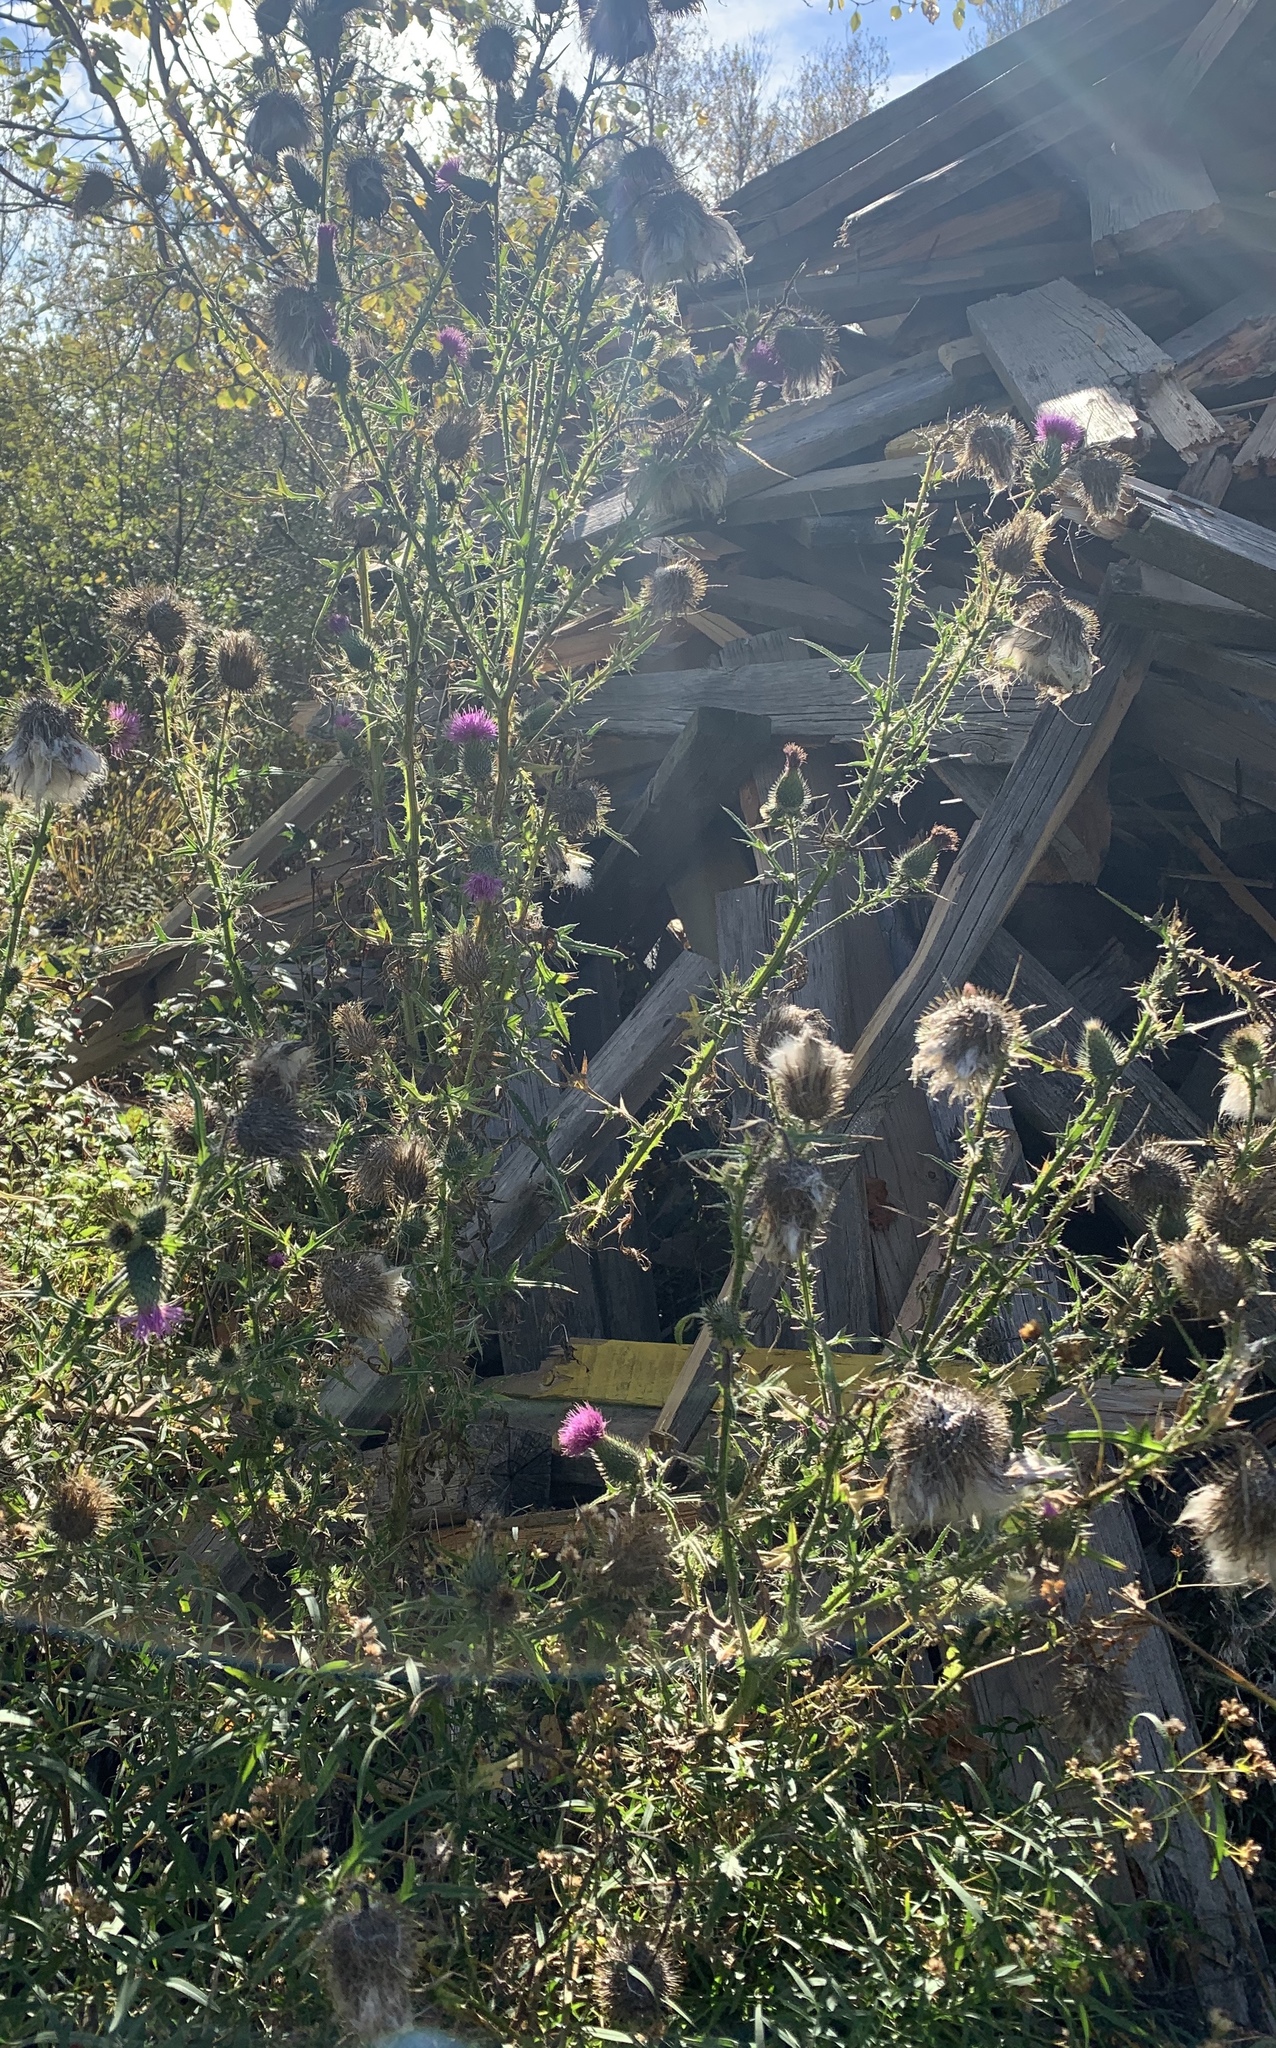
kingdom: Plantae
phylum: Tracheophyta
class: Magnoliopsida
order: Asterales
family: Asteraceae
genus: Cirsium
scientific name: Cirsium vulgare
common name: Bull thistle
